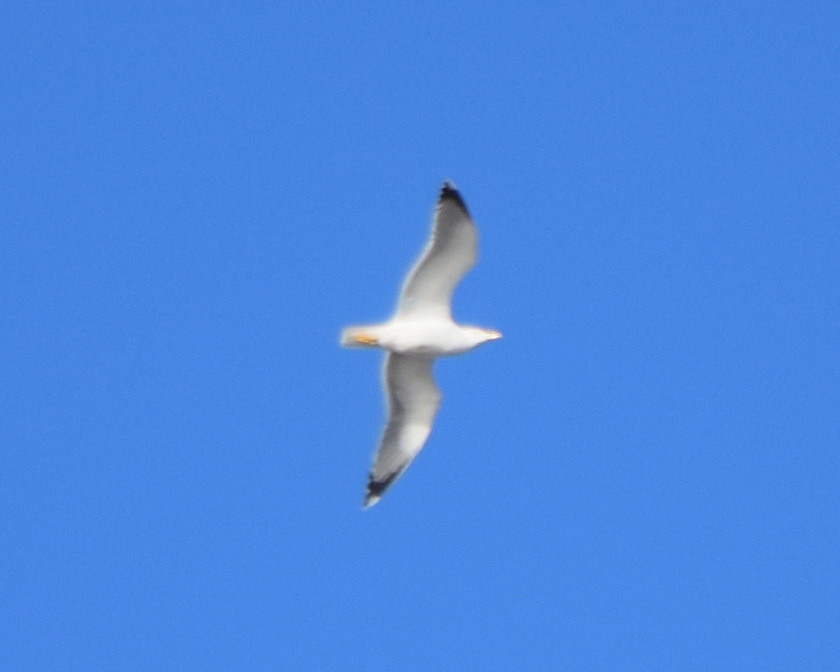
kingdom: Animalia
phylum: Chordata
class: Aves
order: Charadriiformes
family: Laridae
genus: Larus
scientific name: Larus michahellis
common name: Yellow-legged gull
